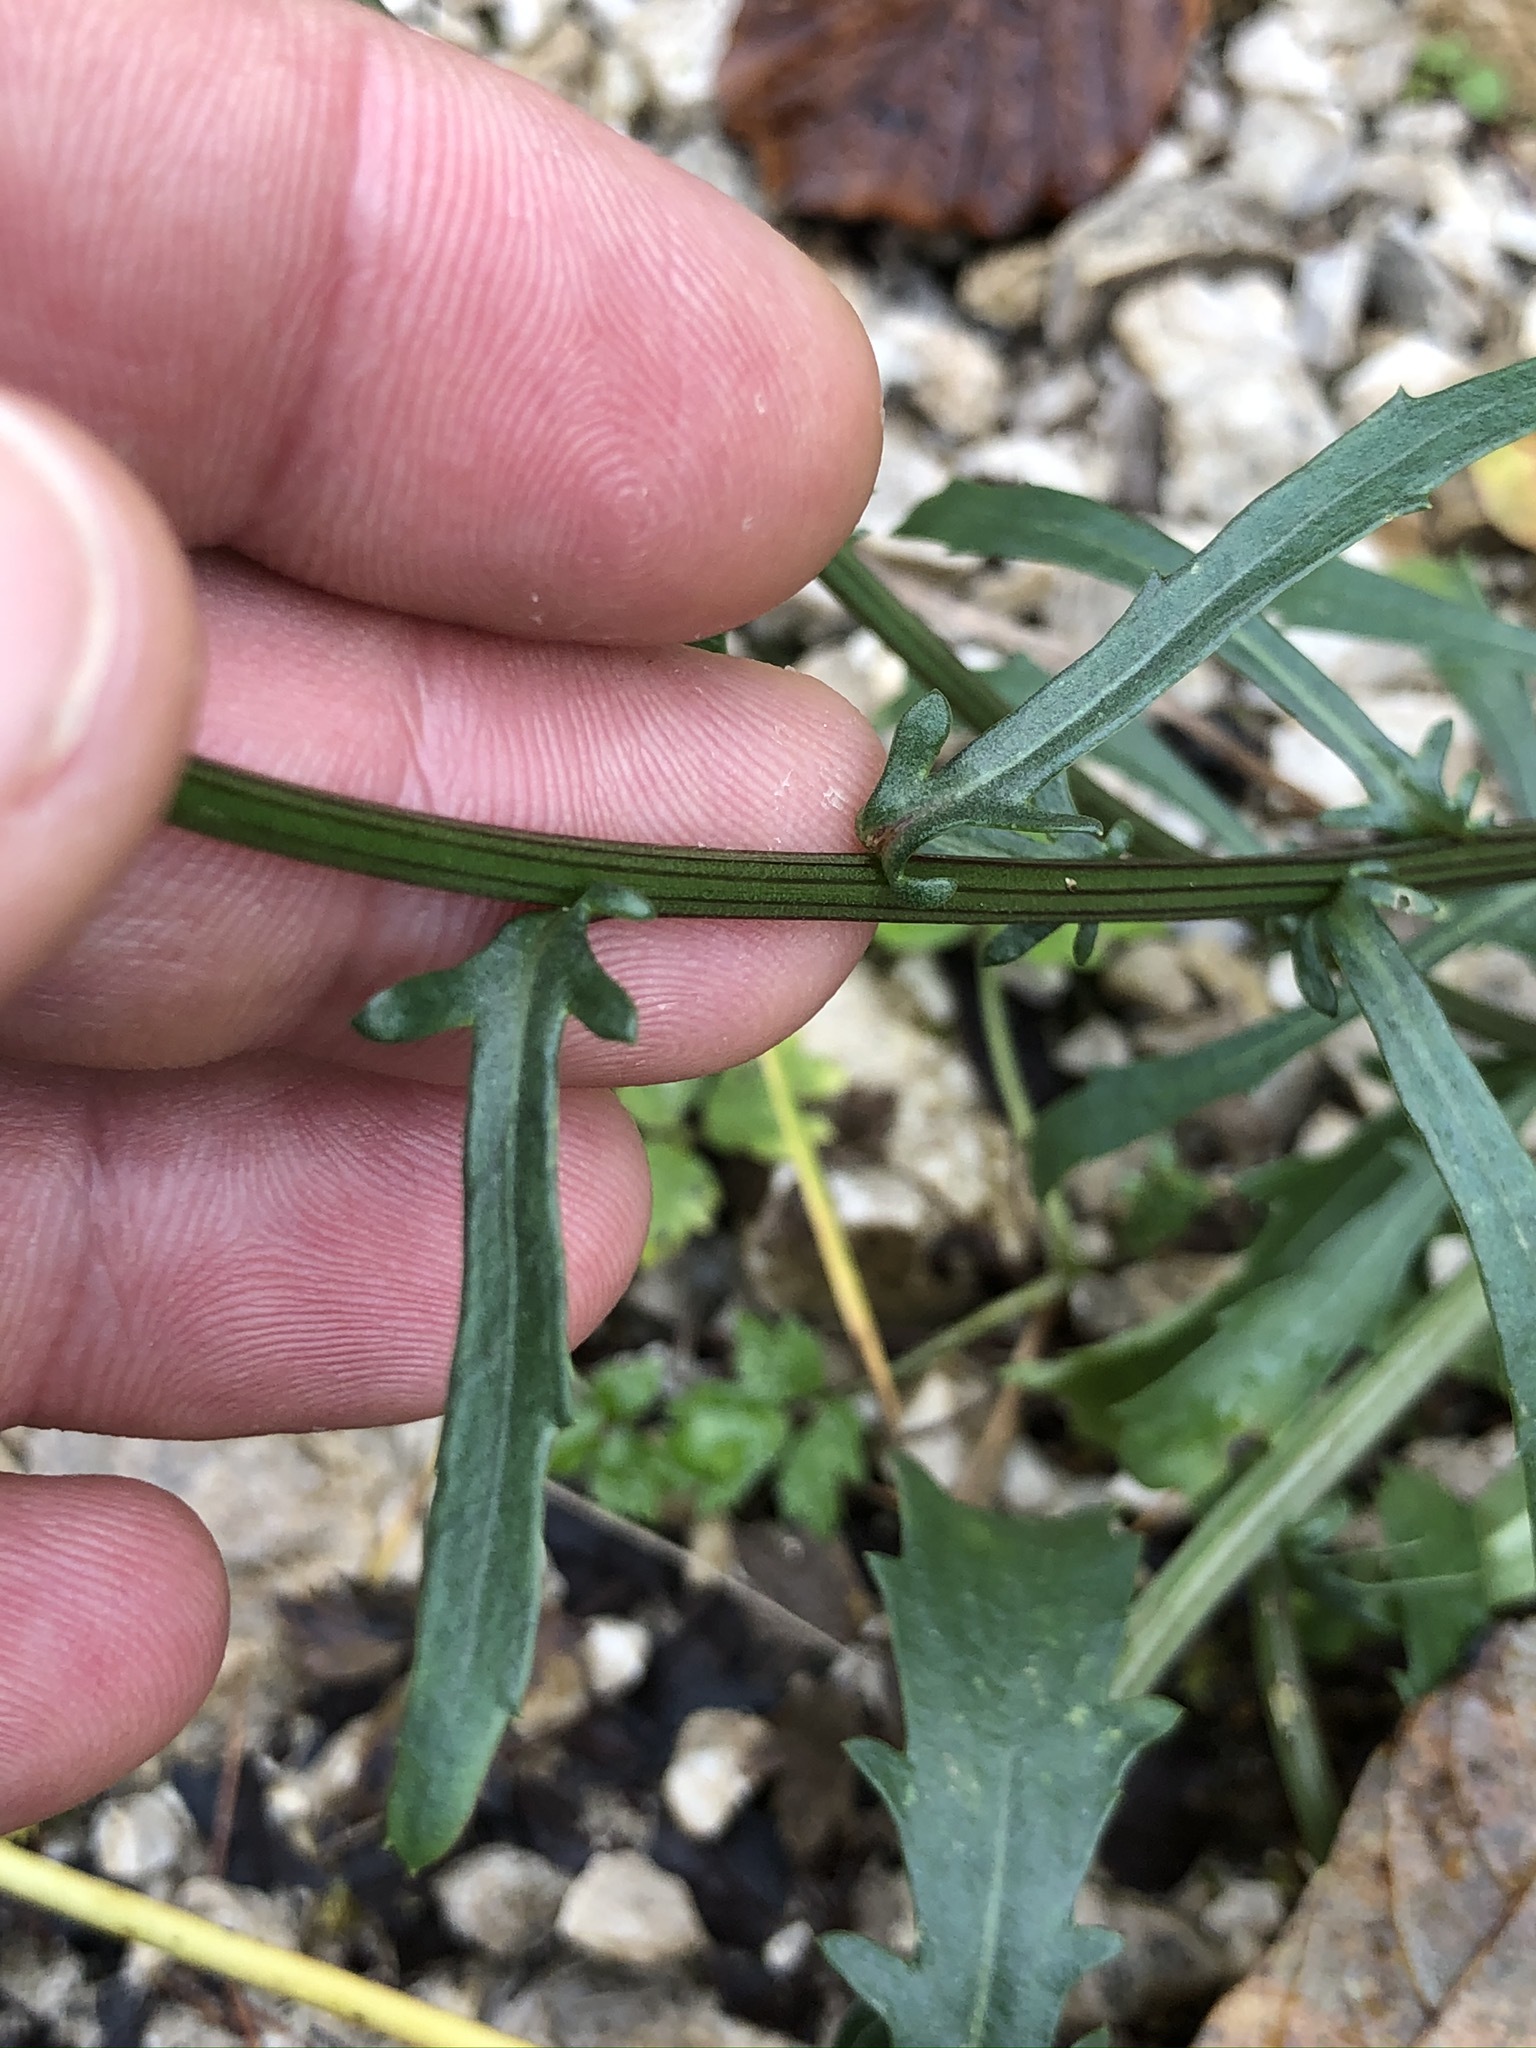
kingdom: Plantae
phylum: Tracheophyta
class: Magnoliopsida
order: Asterales
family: Asteraceae
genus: Leucanthemum
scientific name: Leucanthemum vulgare
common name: Oxeye daisy
